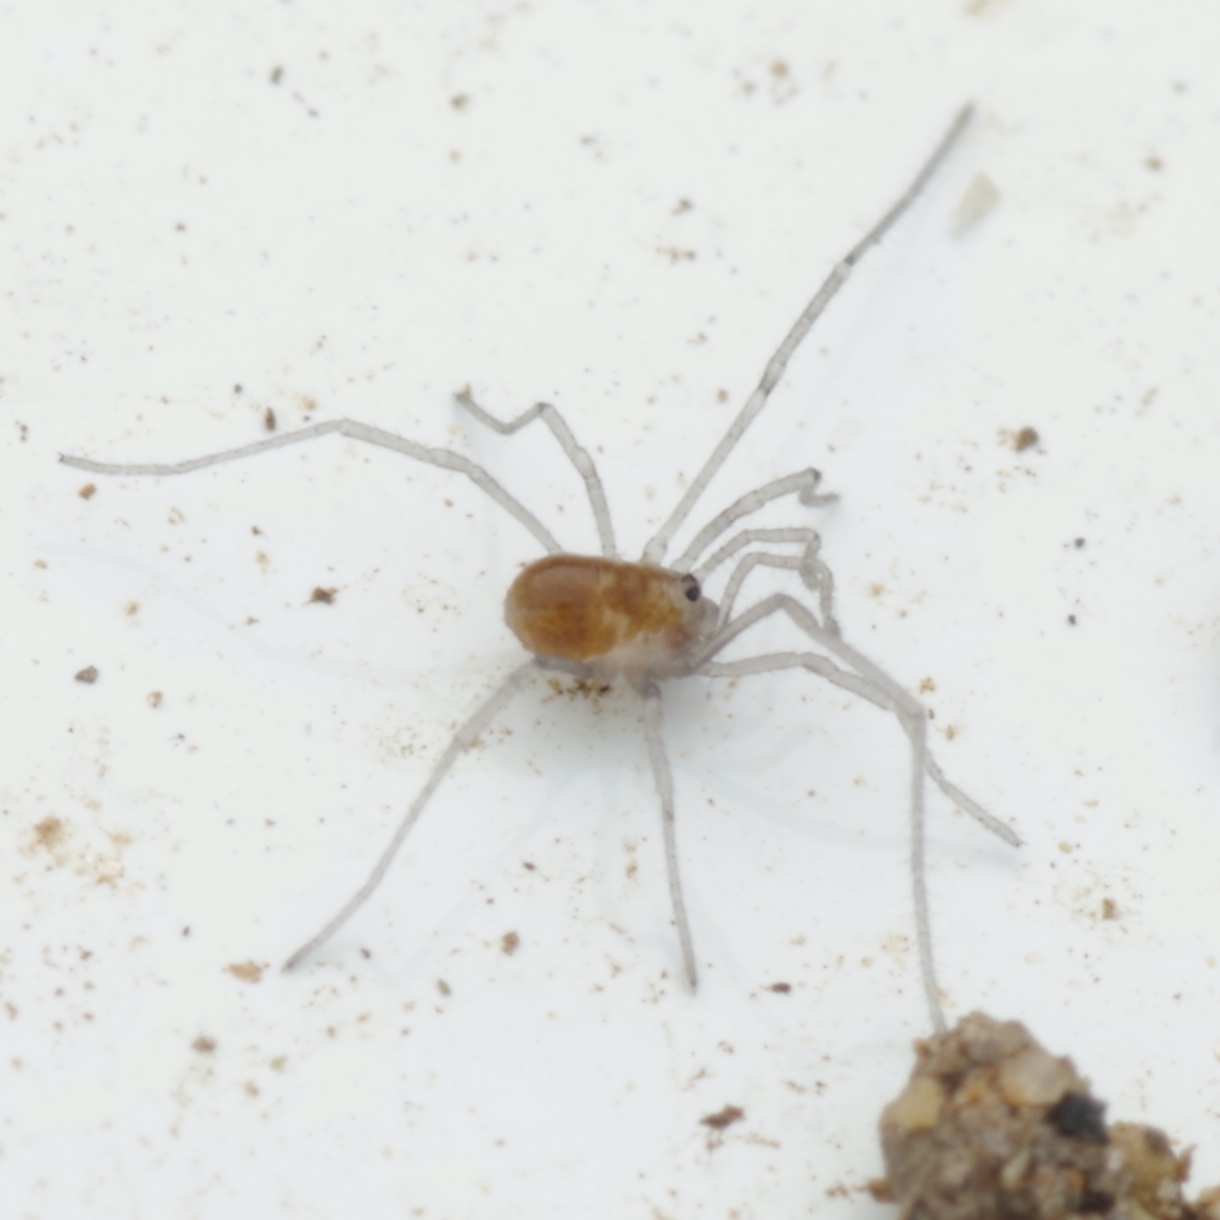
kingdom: Animalia
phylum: Arthropoda
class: Arachnida
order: Opiliones
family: Nemastomatidae
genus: Mitostoma
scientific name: Mitostoma chrysomelas
